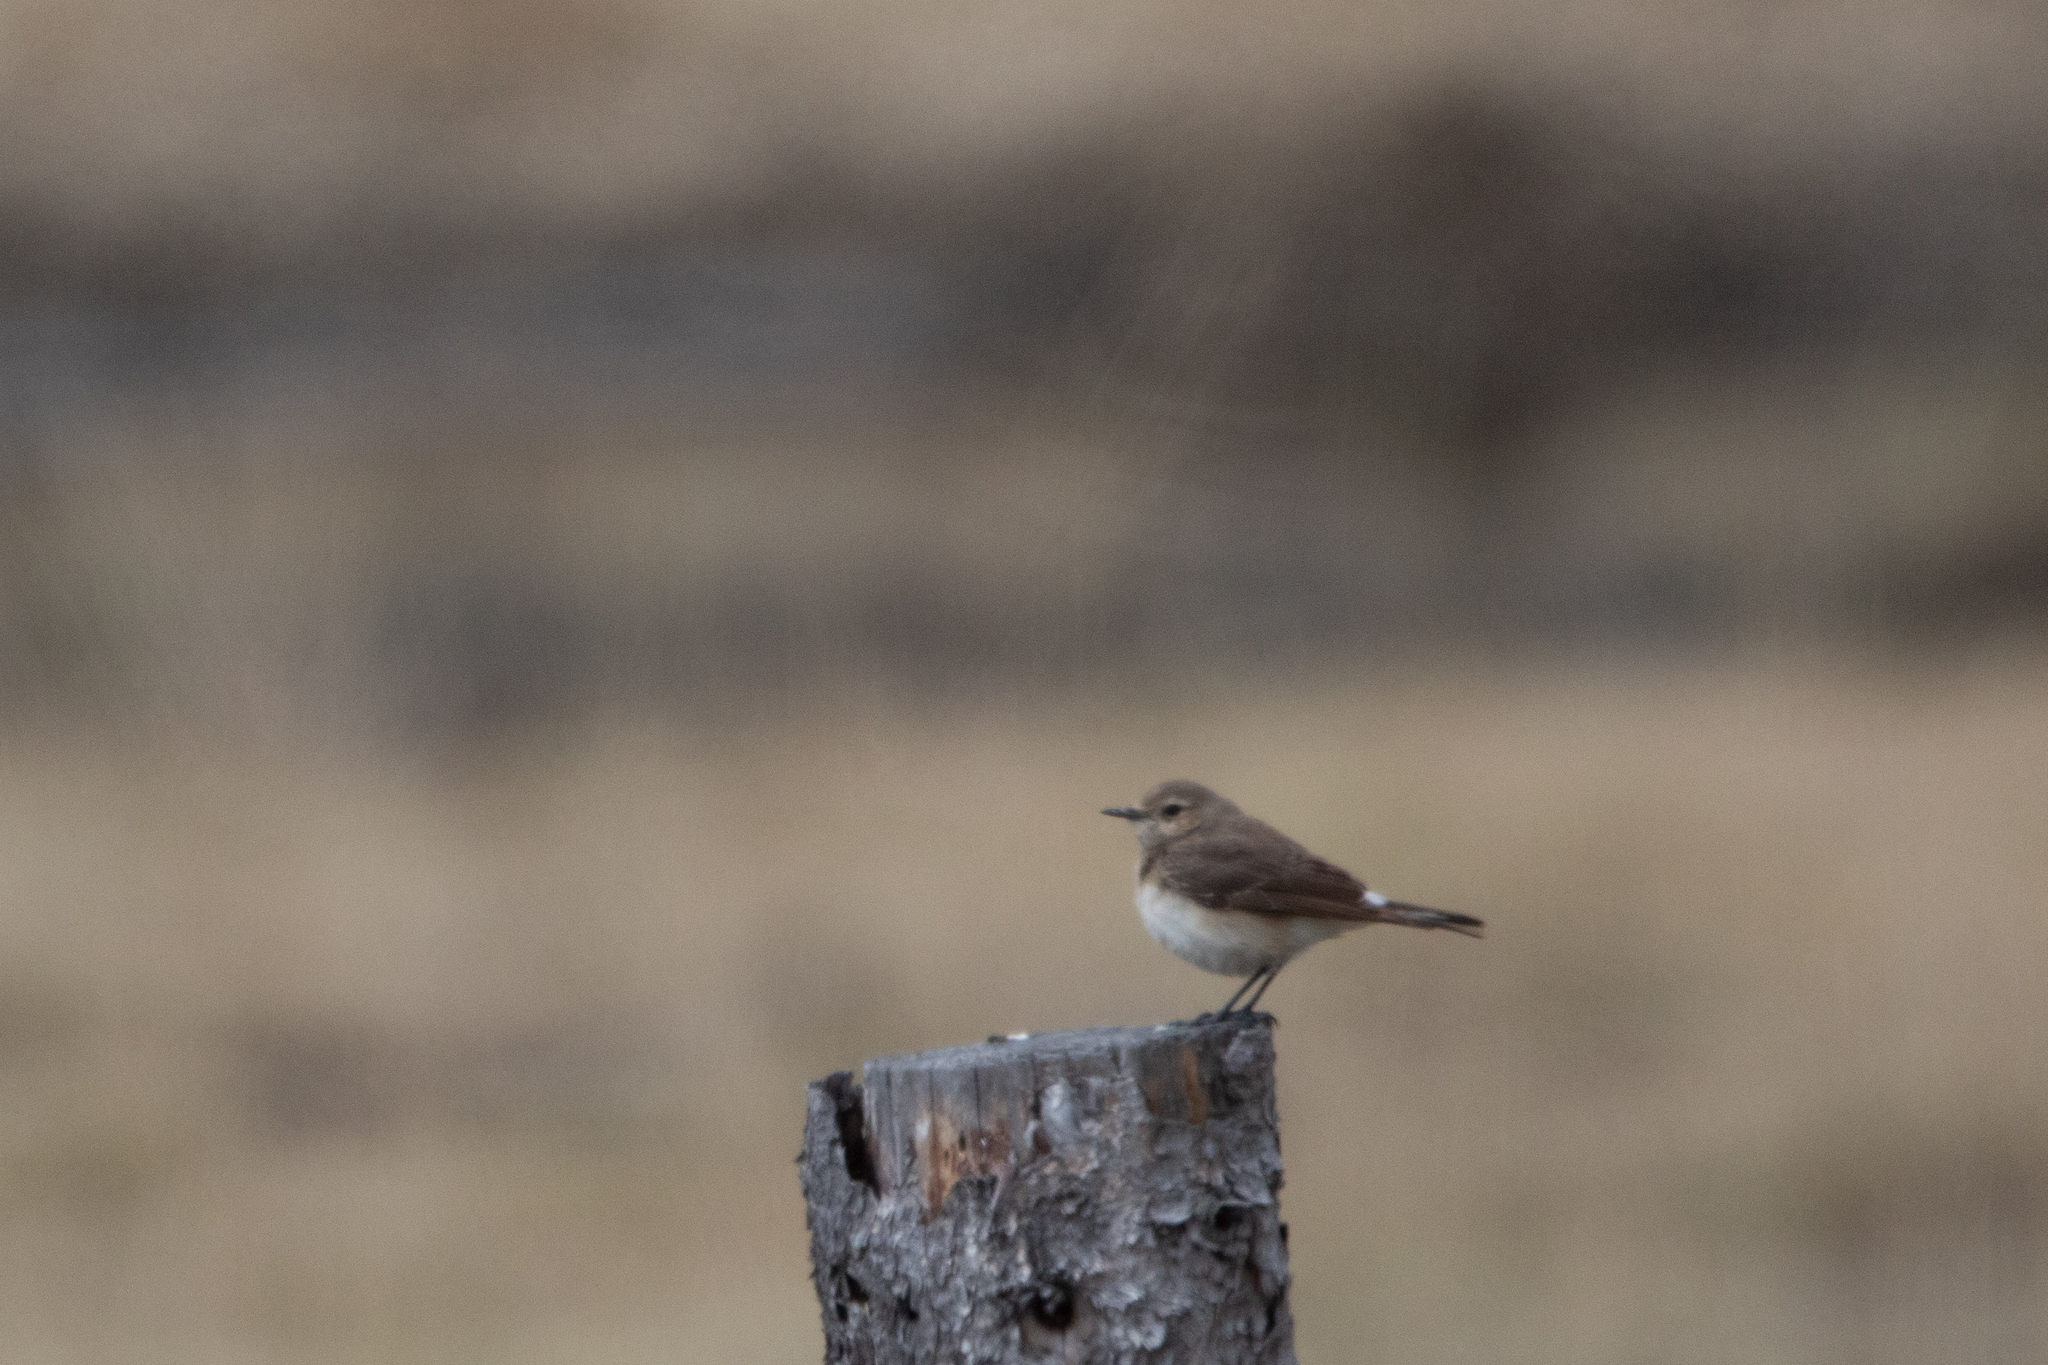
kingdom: Animalia
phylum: Chordata
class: Aves
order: Passeriformes
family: Muscicapidae
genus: Oenanthe
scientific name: Oenanthe pleschanka
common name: Pied wheatear
